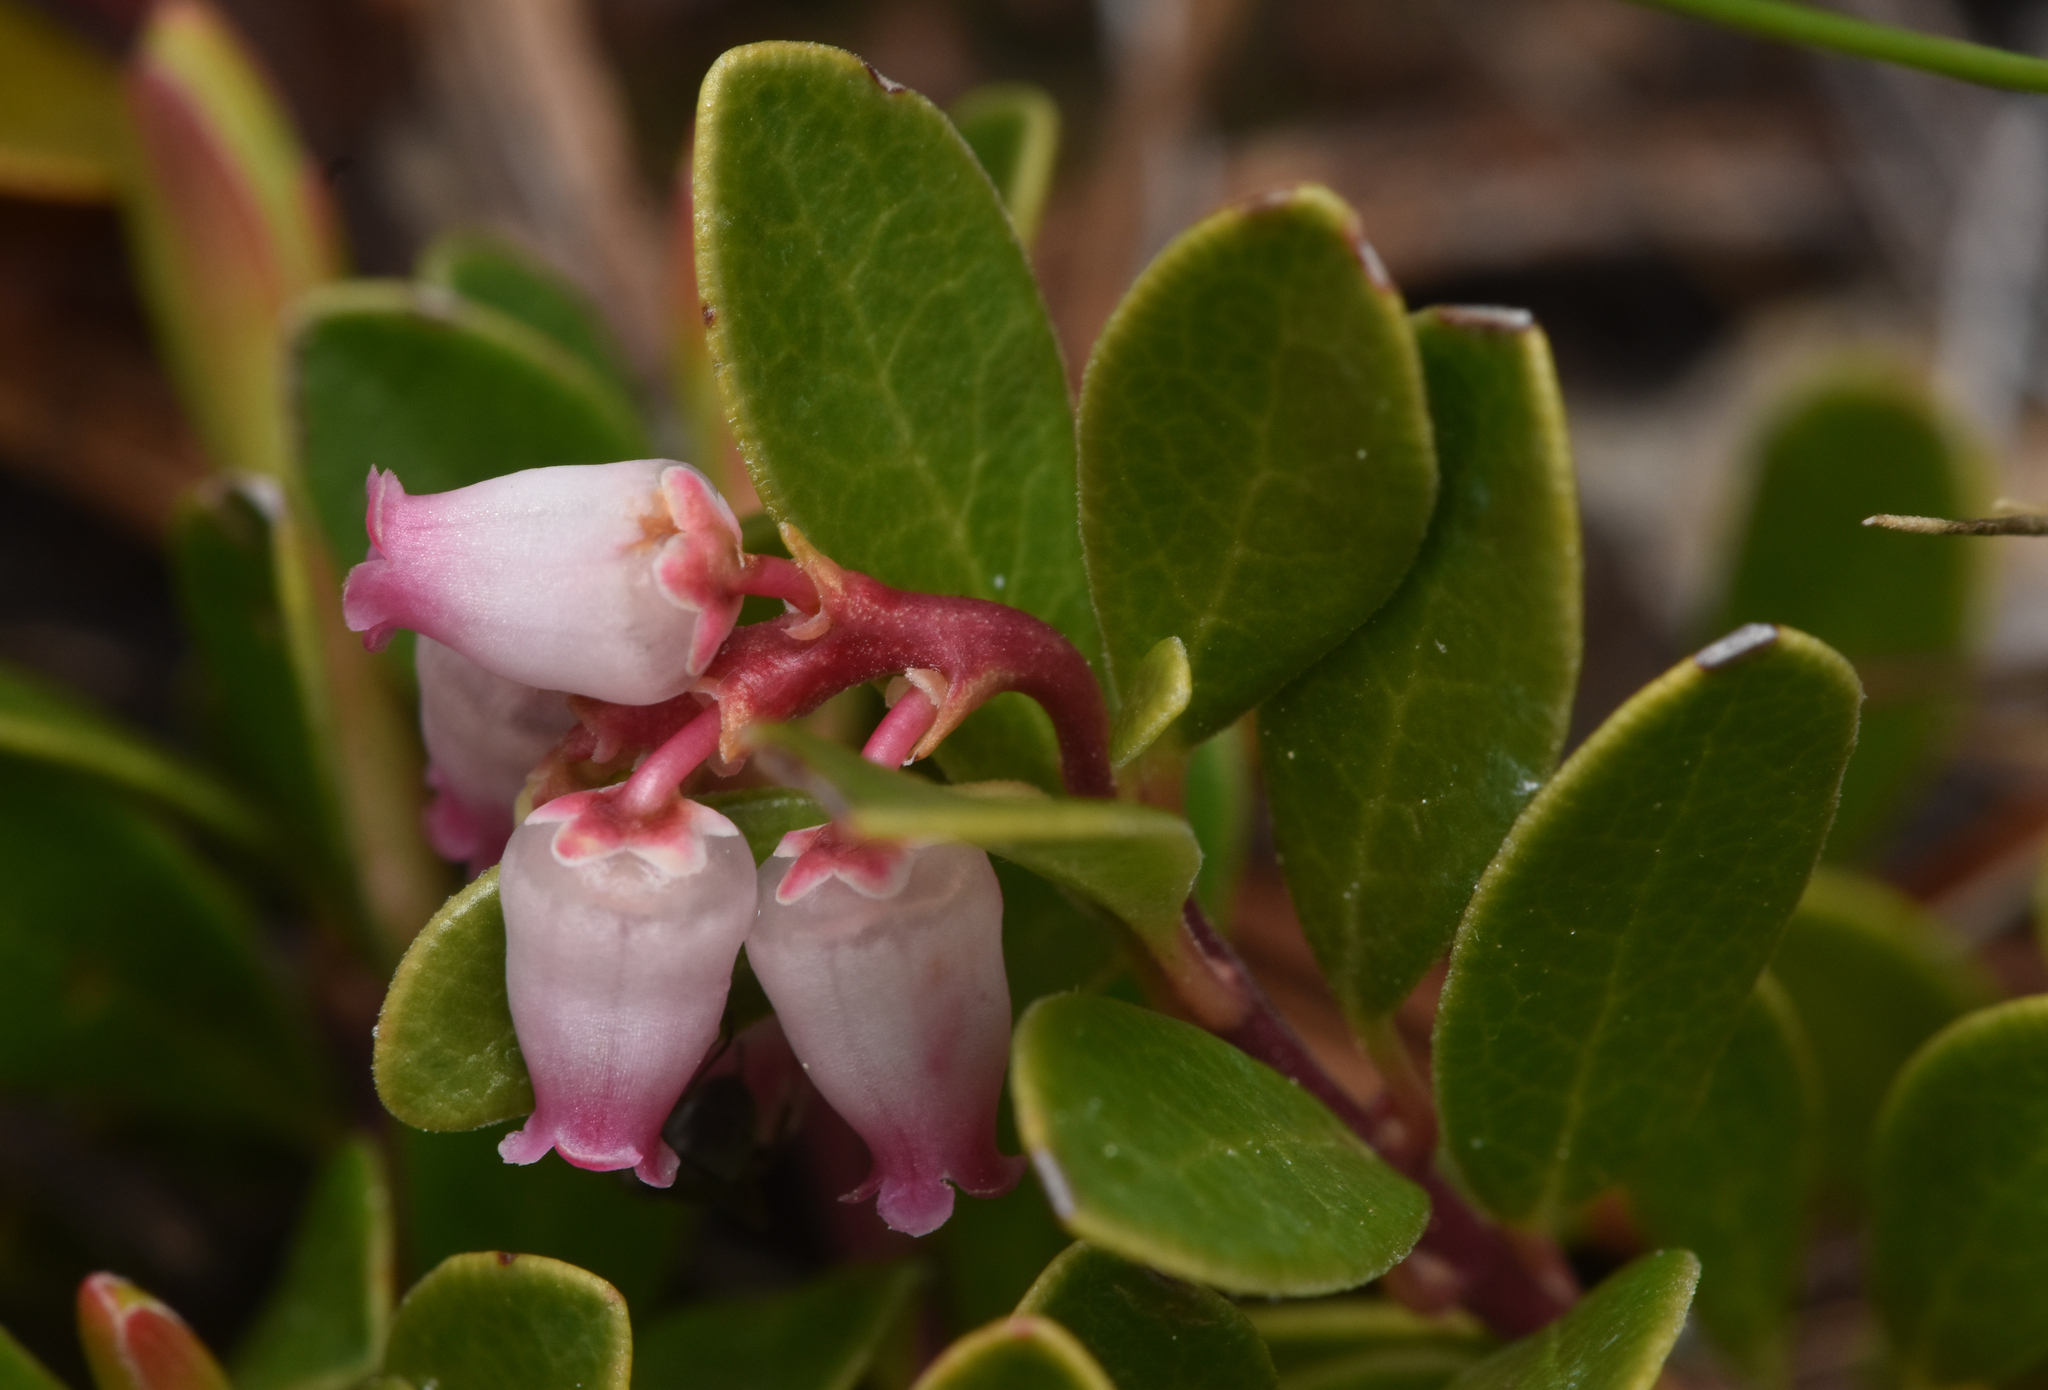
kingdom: Plantae
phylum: Tracheophyta
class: Magnoliopsida
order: Ericales
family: Ericaceae
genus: Arctostaphylos
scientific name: Arctostaphylos uva-ursi
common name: Bearberry
